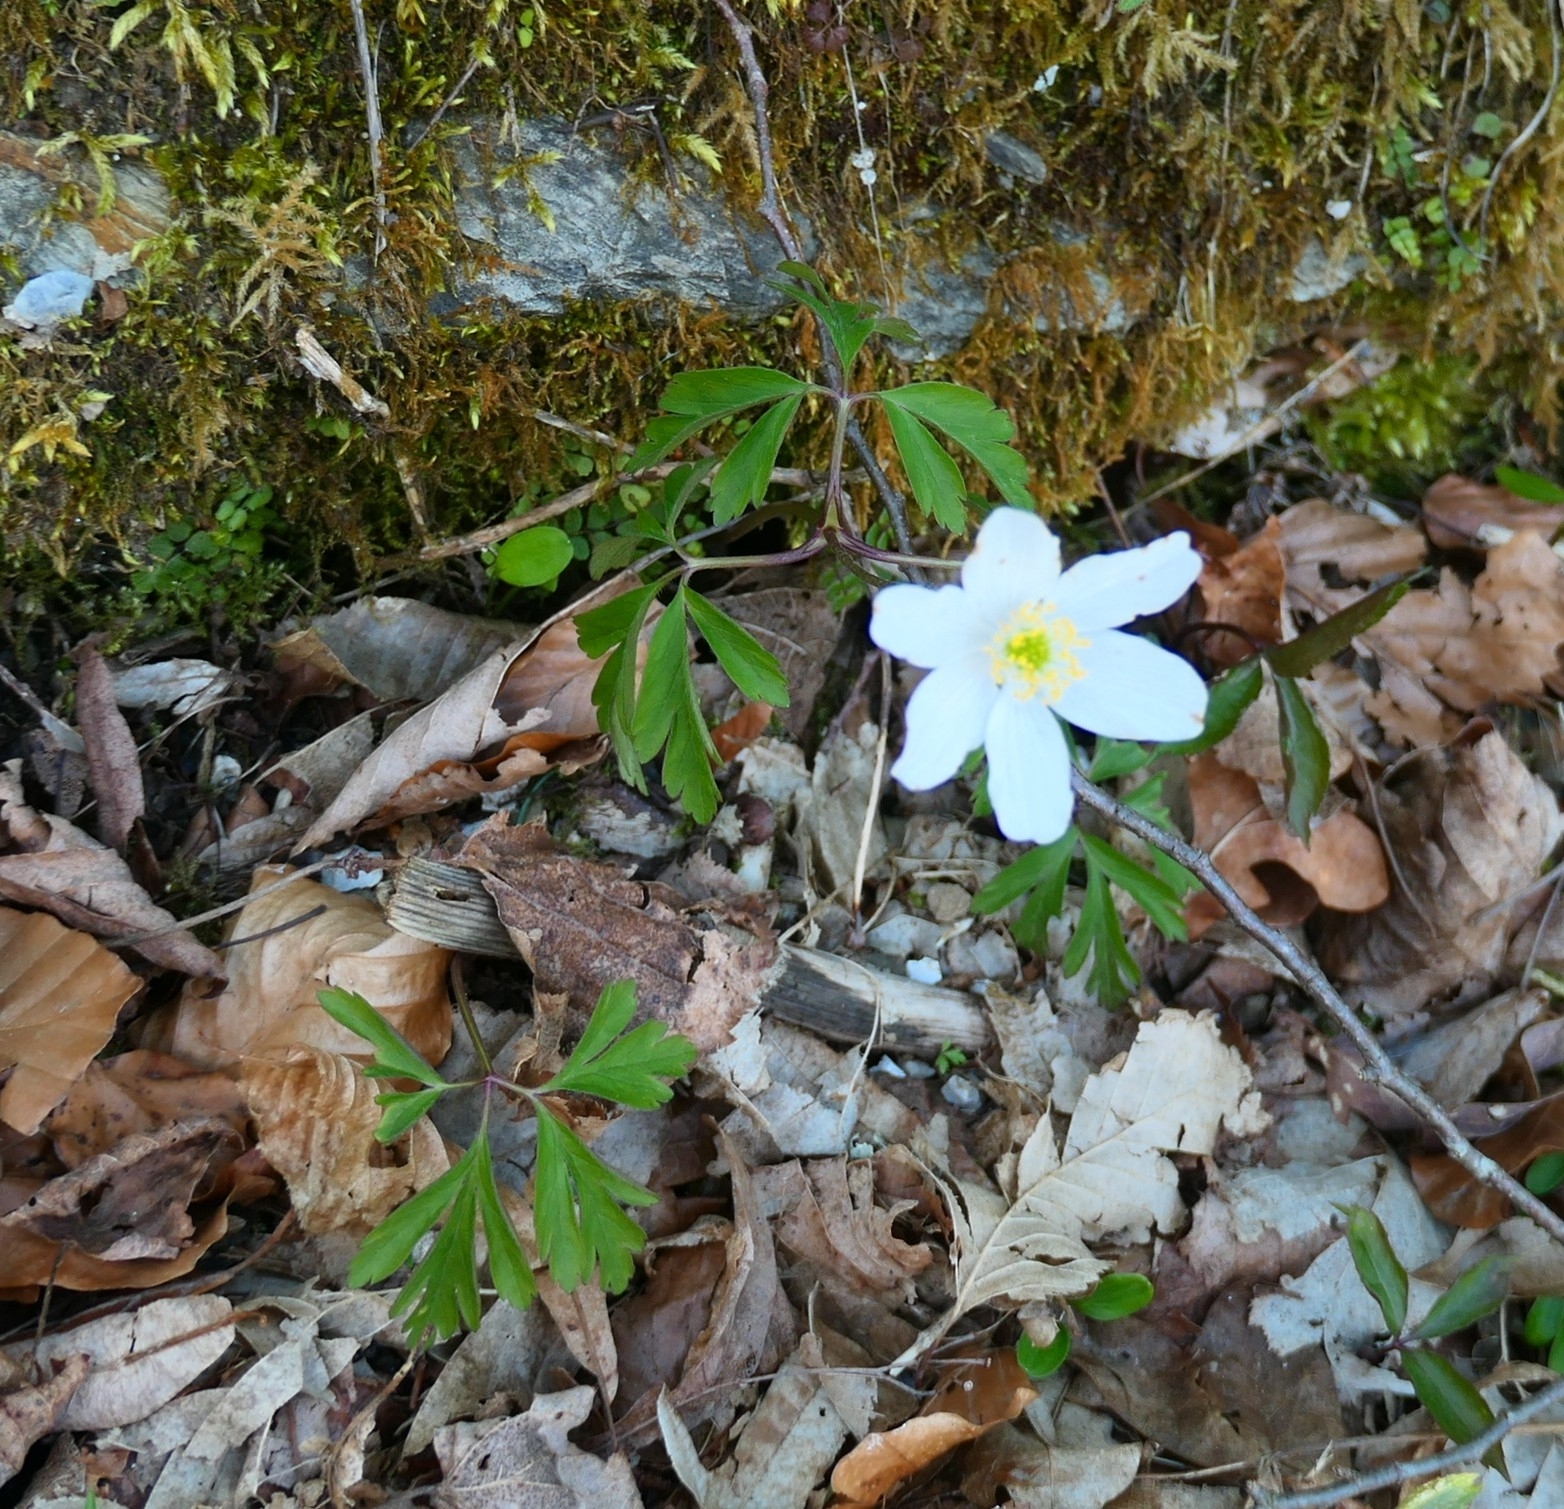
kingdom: Plantae
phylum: Tracheophyta
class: Magnoliopsida
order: Ranunculales
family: Ranunculaceae
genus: Anemone
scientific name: Anemone nemorosa
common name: Wood anemone
